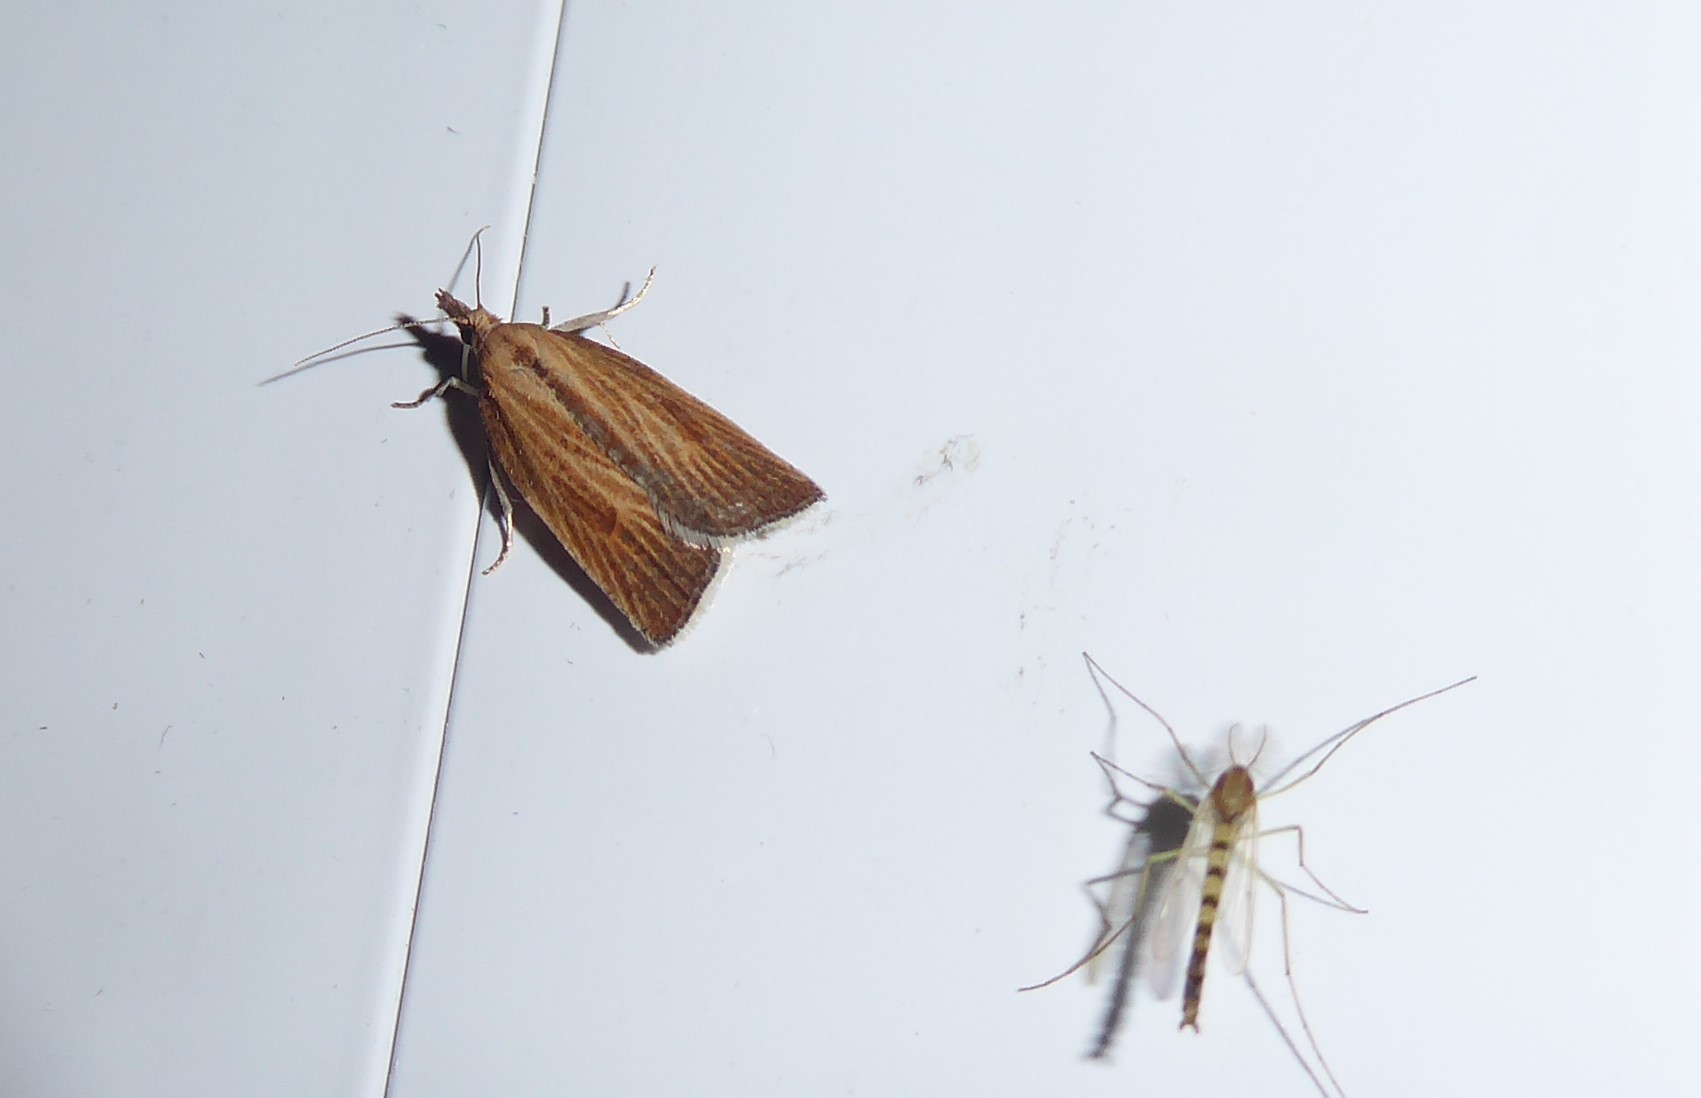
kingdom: Animalia
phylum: Arthropoda
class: Insecta
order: Lepidoptera
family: Tortricidae
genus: Catamacta
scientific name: Catamacta lotinana
